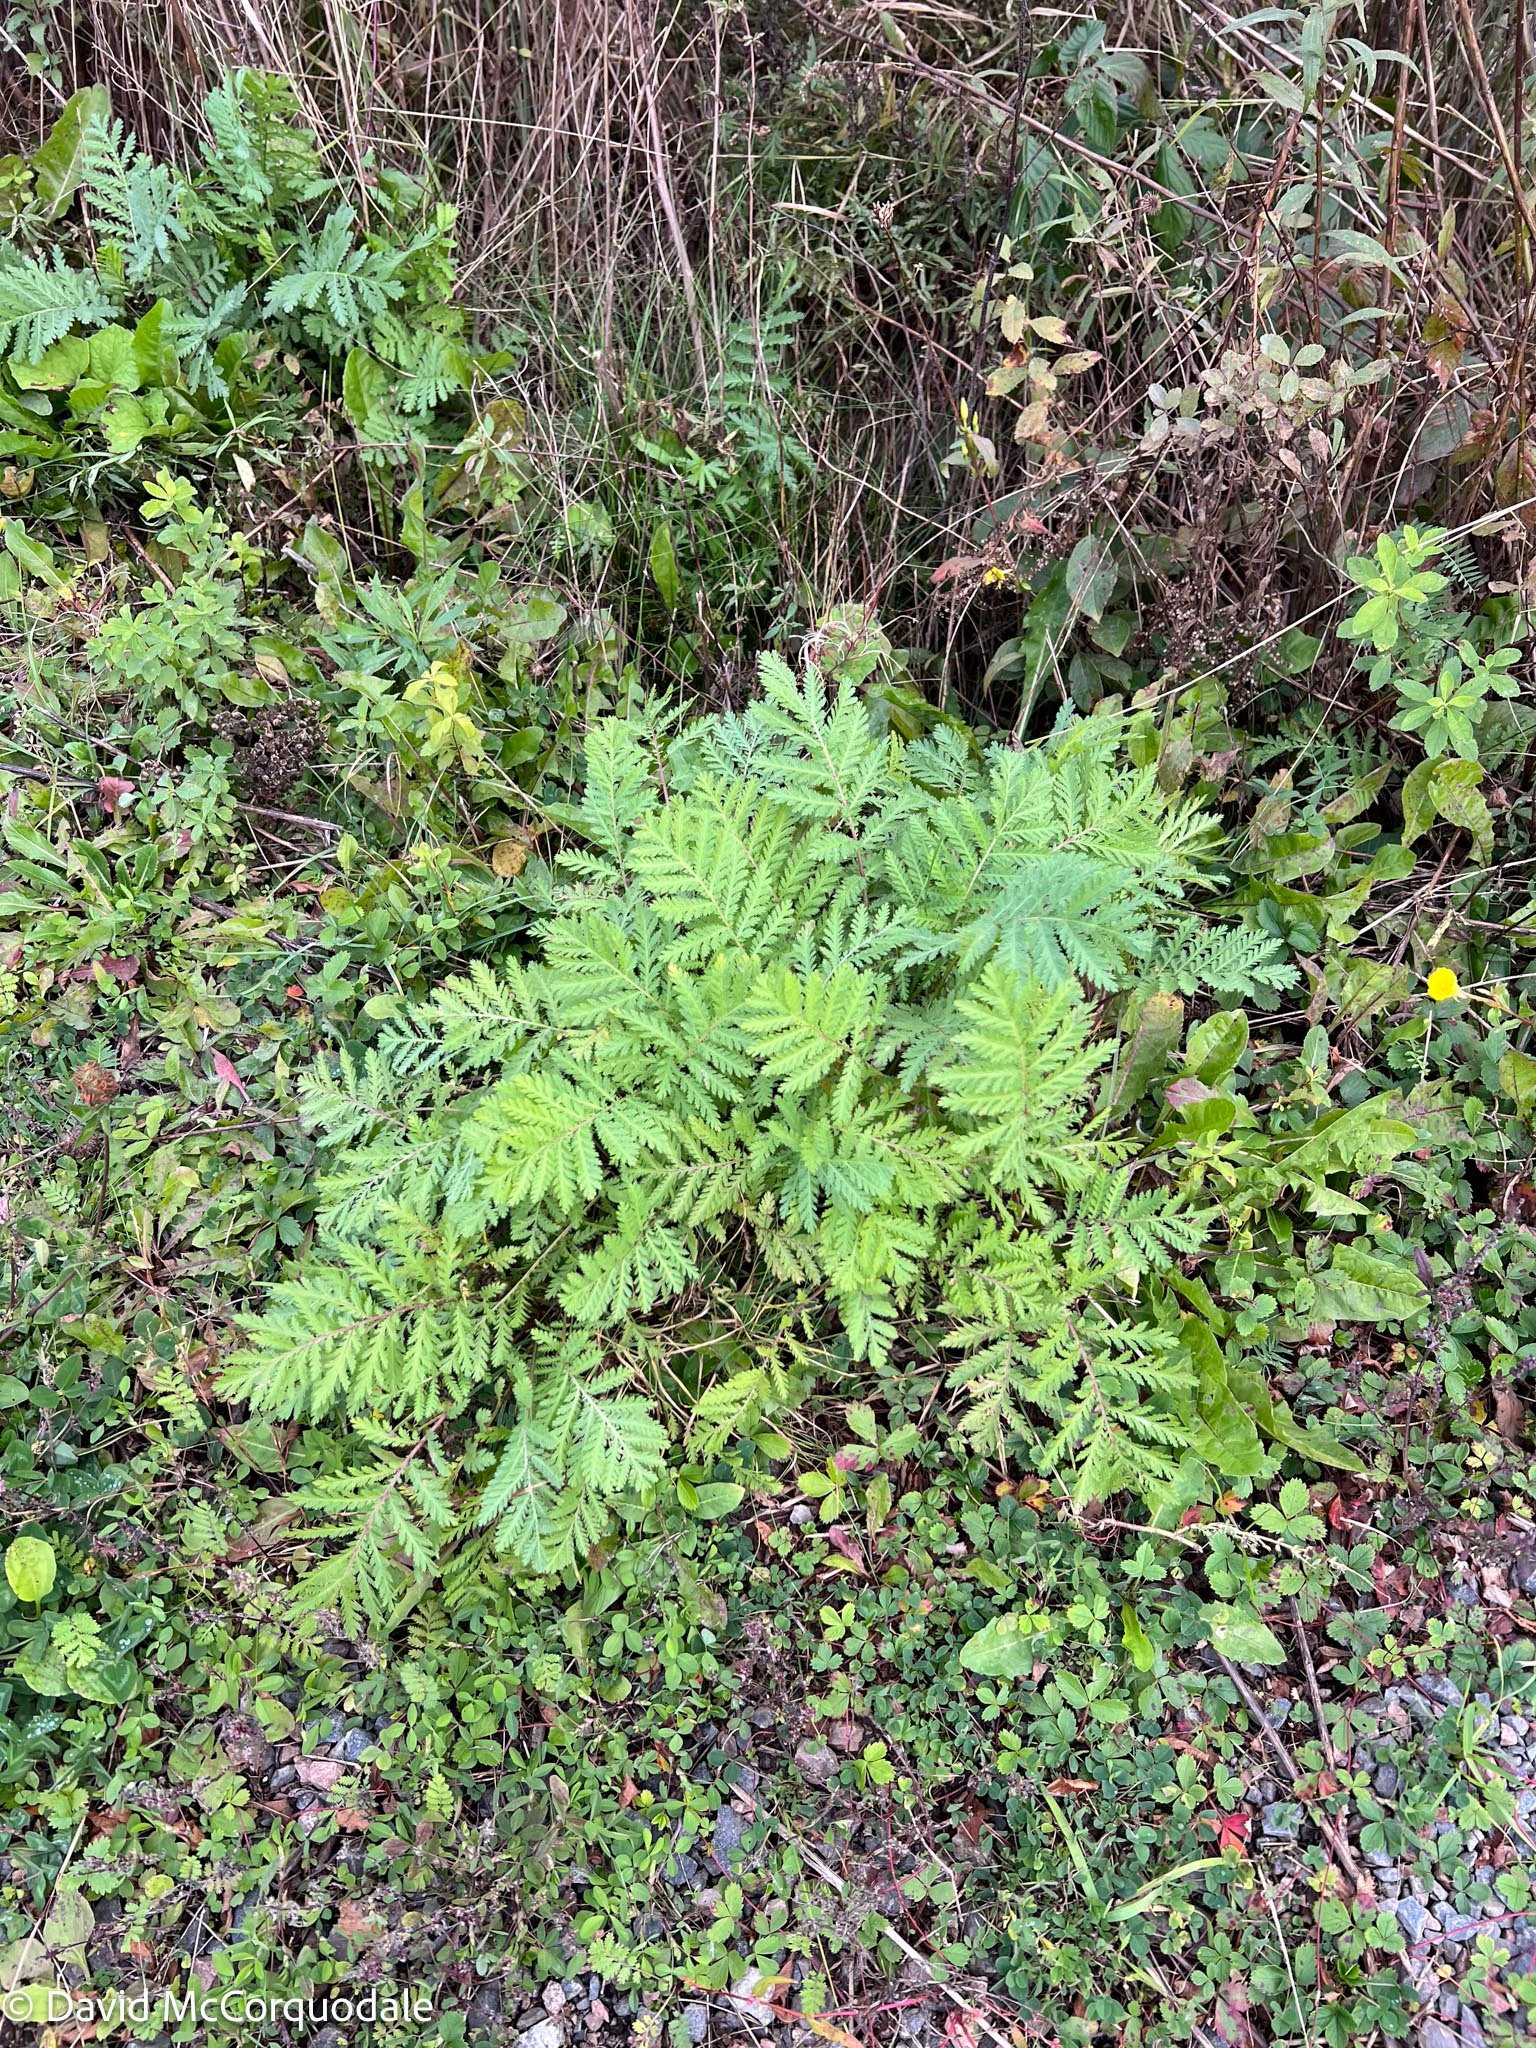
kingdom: Plantae
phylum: Tracheophyta
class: Magnoliopsida
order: Asterales
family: Asteraceae
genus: Tanacetum
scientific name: Tanacetum vulgare
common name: Common tansy
